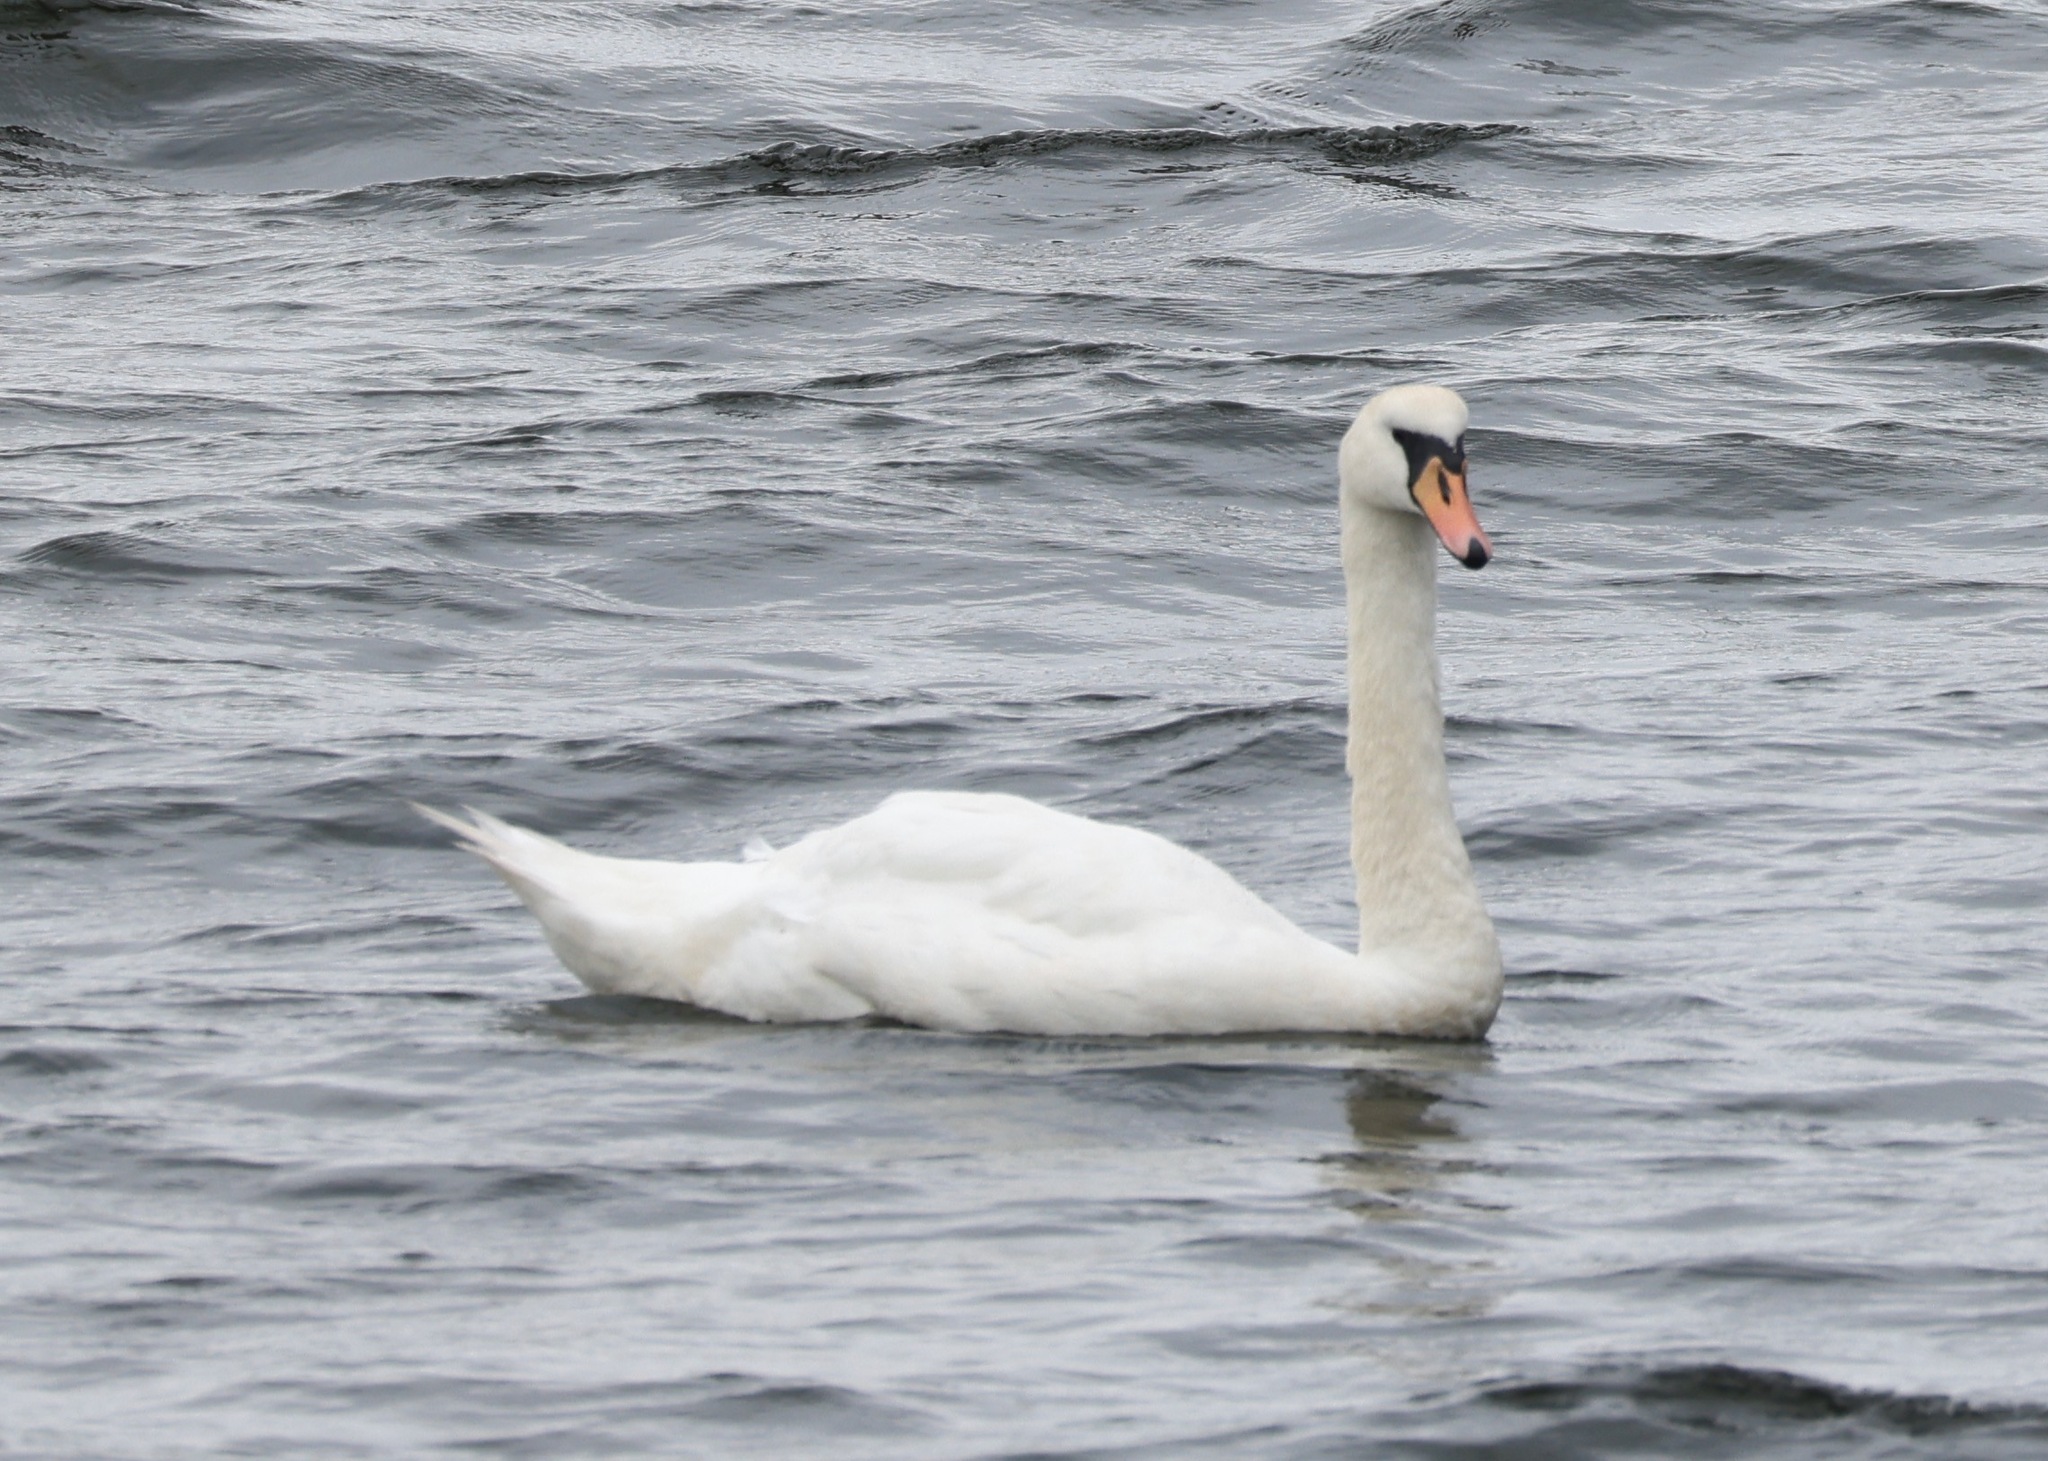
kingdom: Animalia
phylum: Chordata
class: Aves
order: Anseriformes
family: Anatidae
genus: Cygnus
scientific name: Cygnus olor
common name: Mute swan
